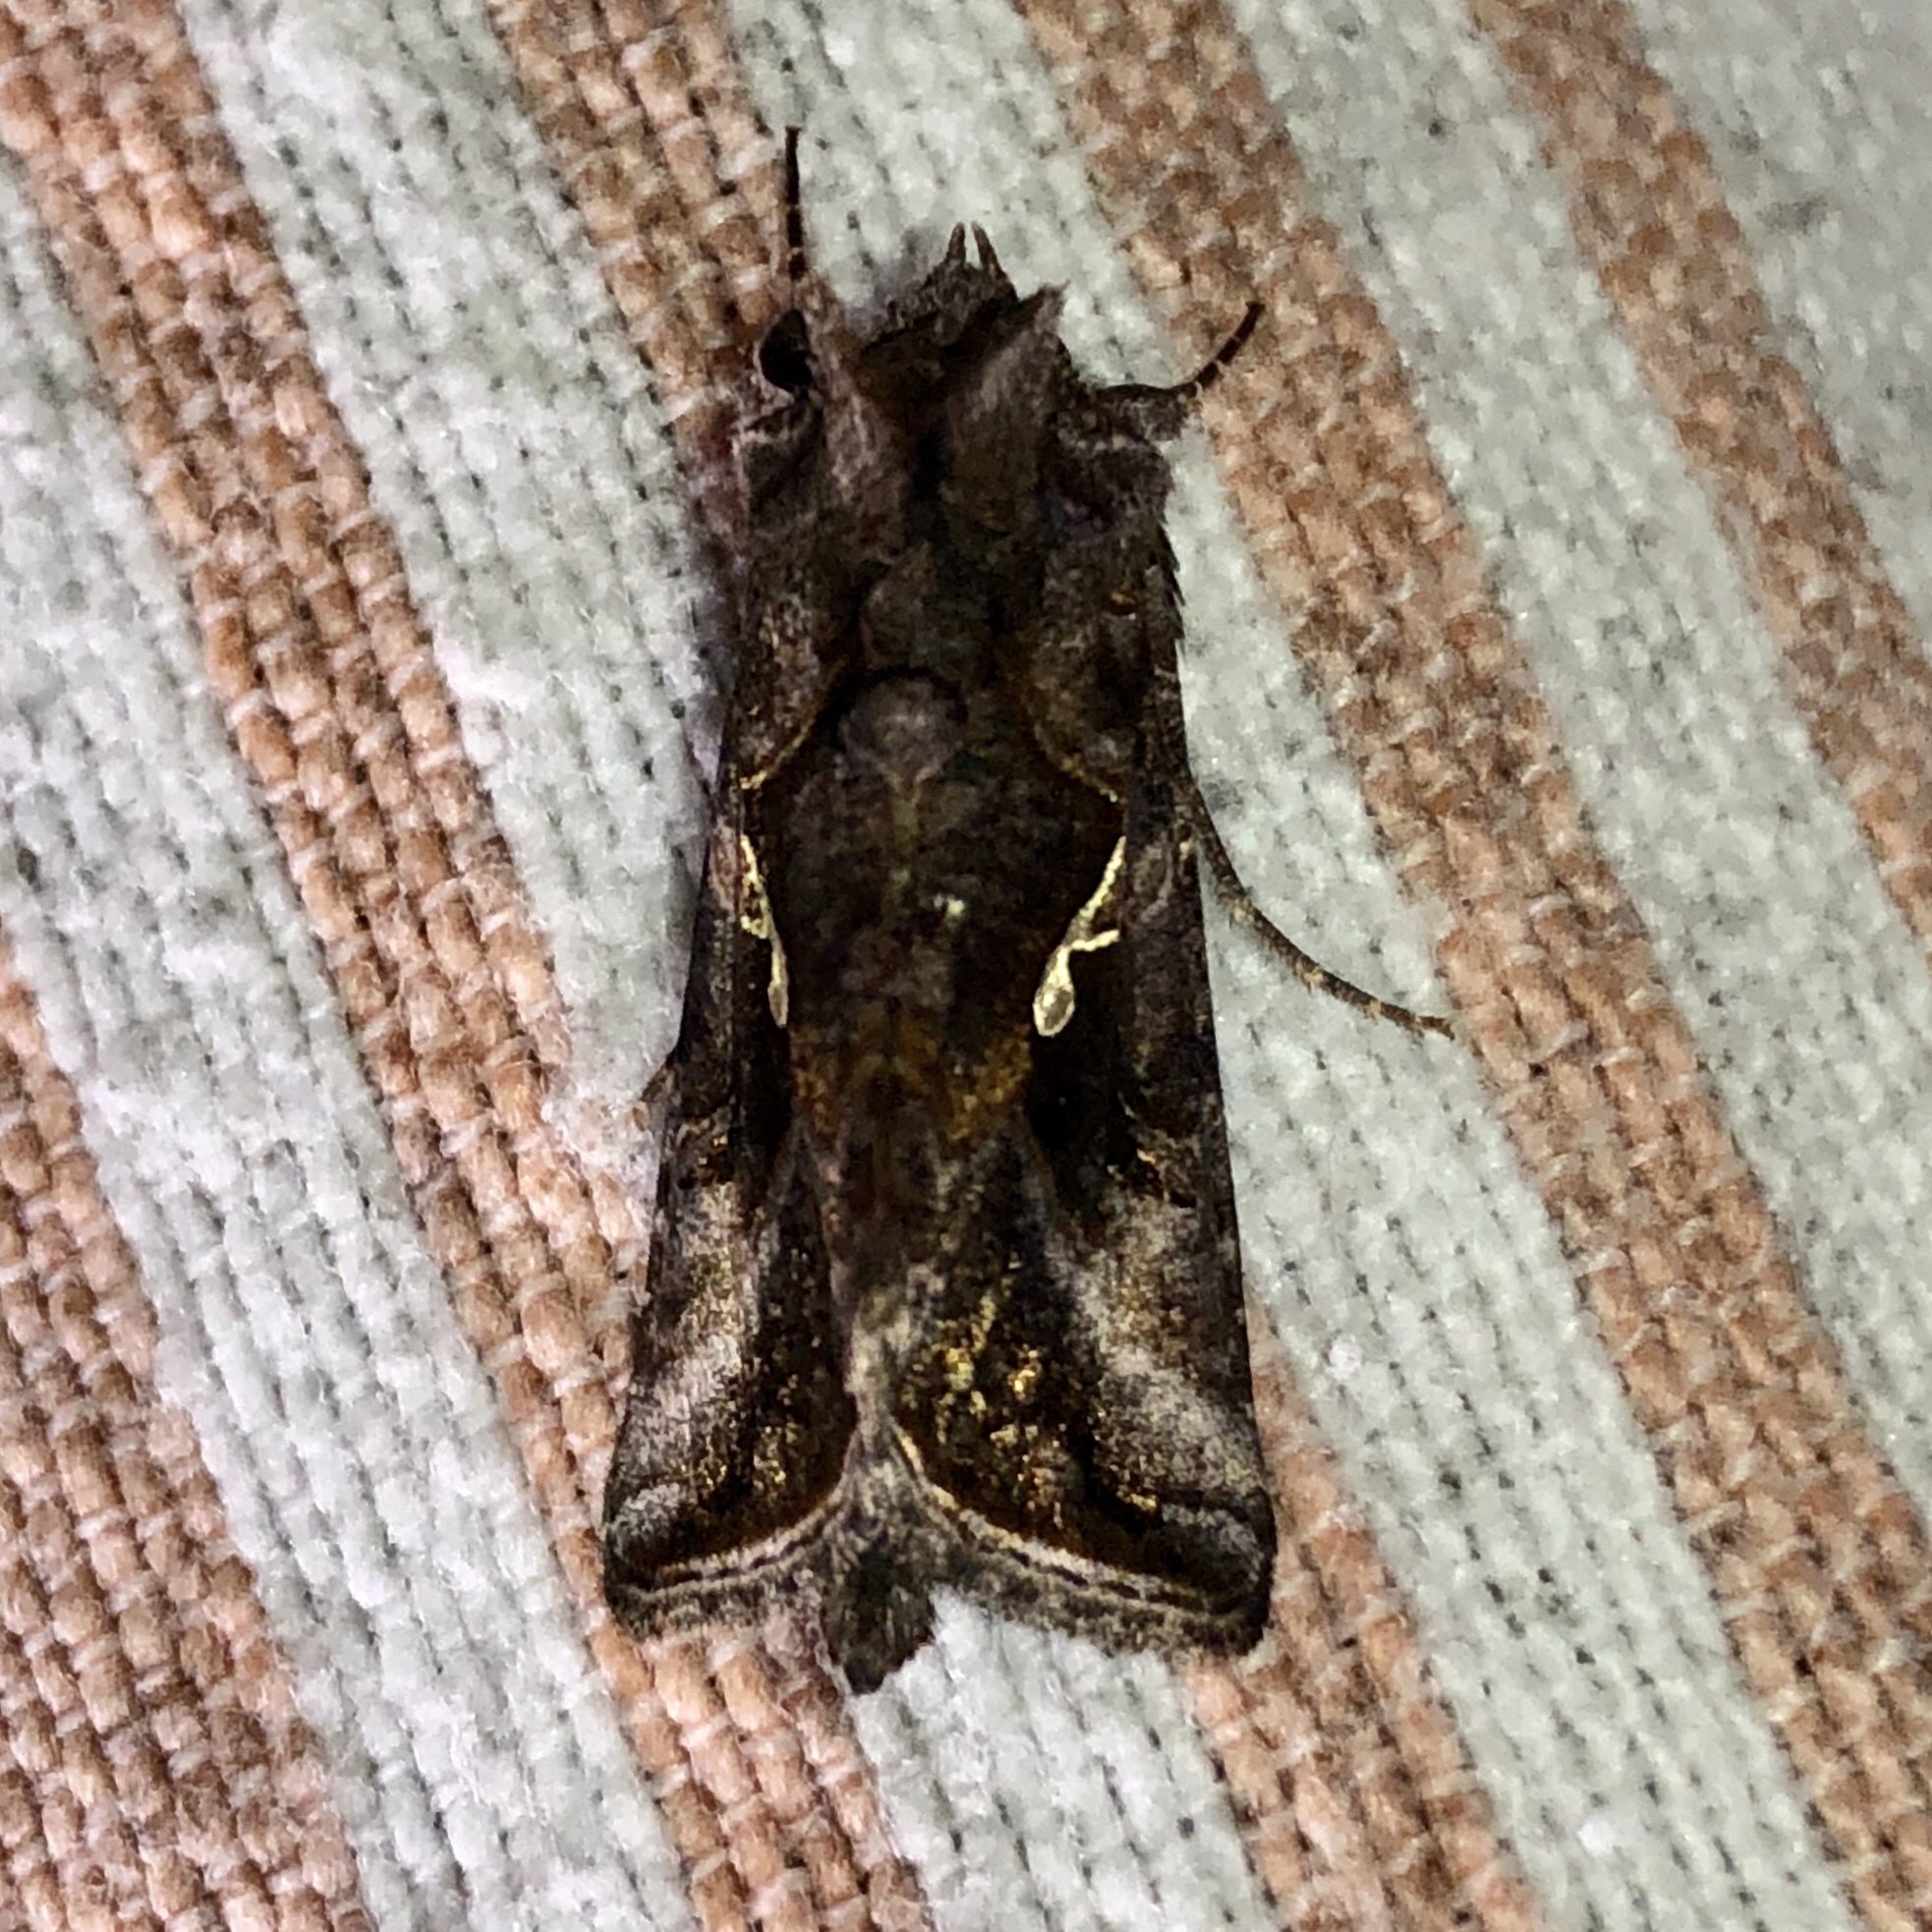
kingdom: Animalia
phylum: Arthropoda
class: Insecta
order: Lepidoptera
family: Noctuidae
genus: Autographa
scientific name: Autographa precationis
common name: Common looper moth
